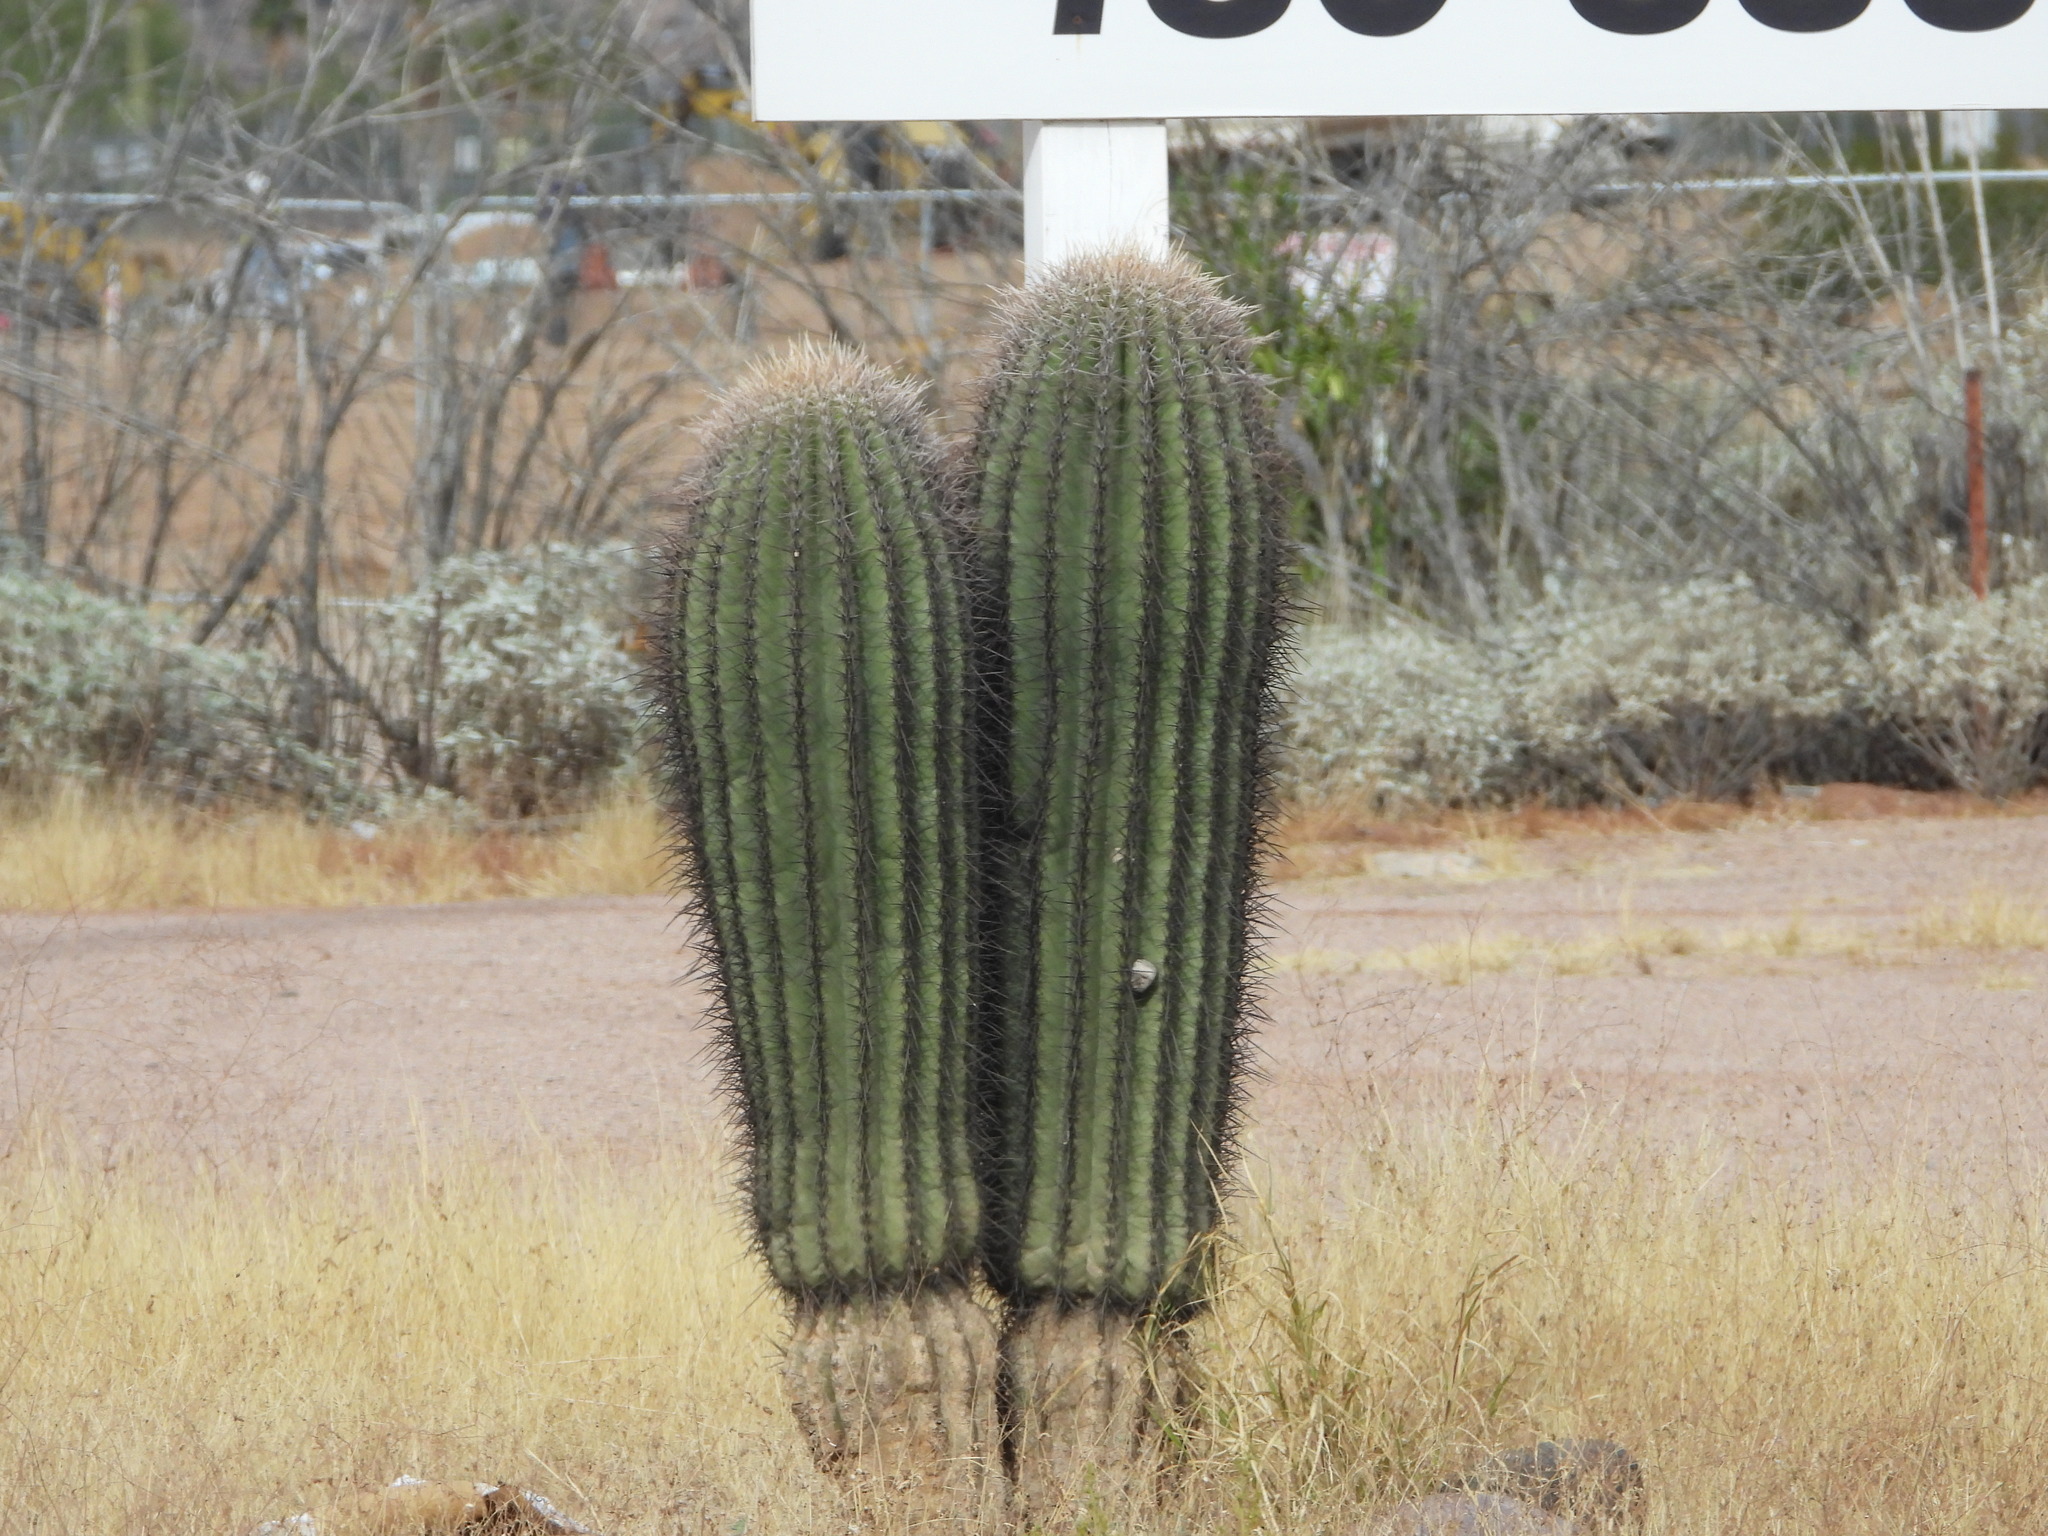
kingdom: Plantae
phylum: Tracheophyta
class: Magnoliopsida
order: Caryophyllales
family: Cactaceae
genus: Carnegiea
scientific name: Carnegiea gigantea
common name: Saguaro
